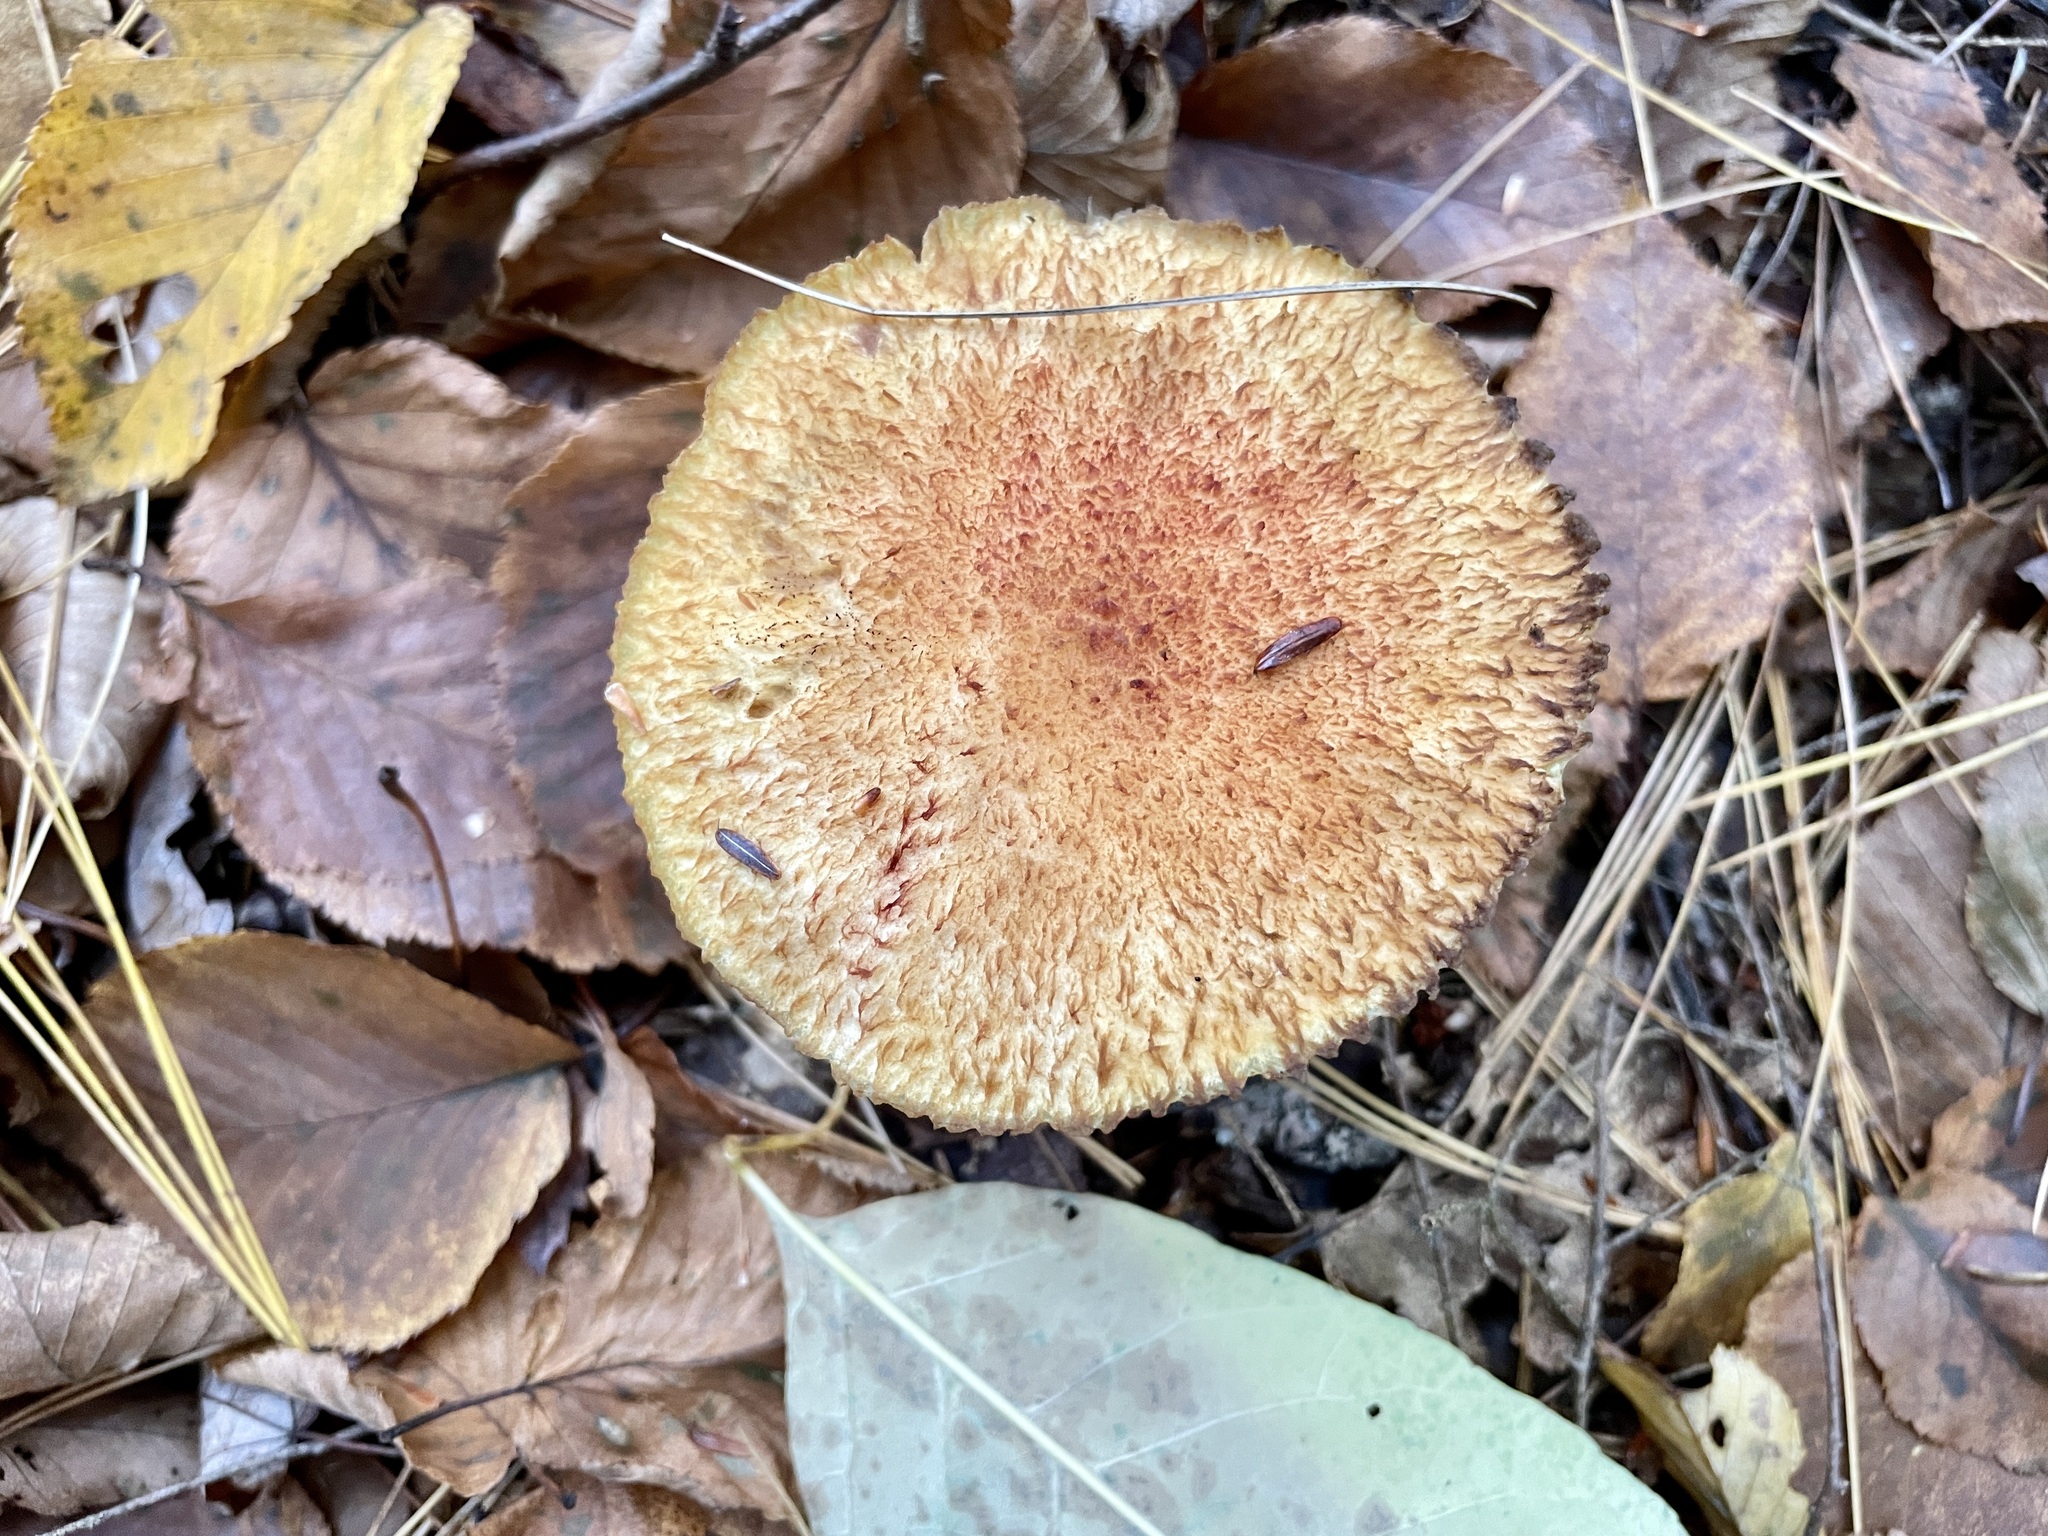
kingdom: Fungi
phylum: Basidiomycota
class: Agaricomycetes
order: Boletales
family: Suillaceae
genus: Suillus
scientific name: Suillus spraguei
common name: Painted suillus
